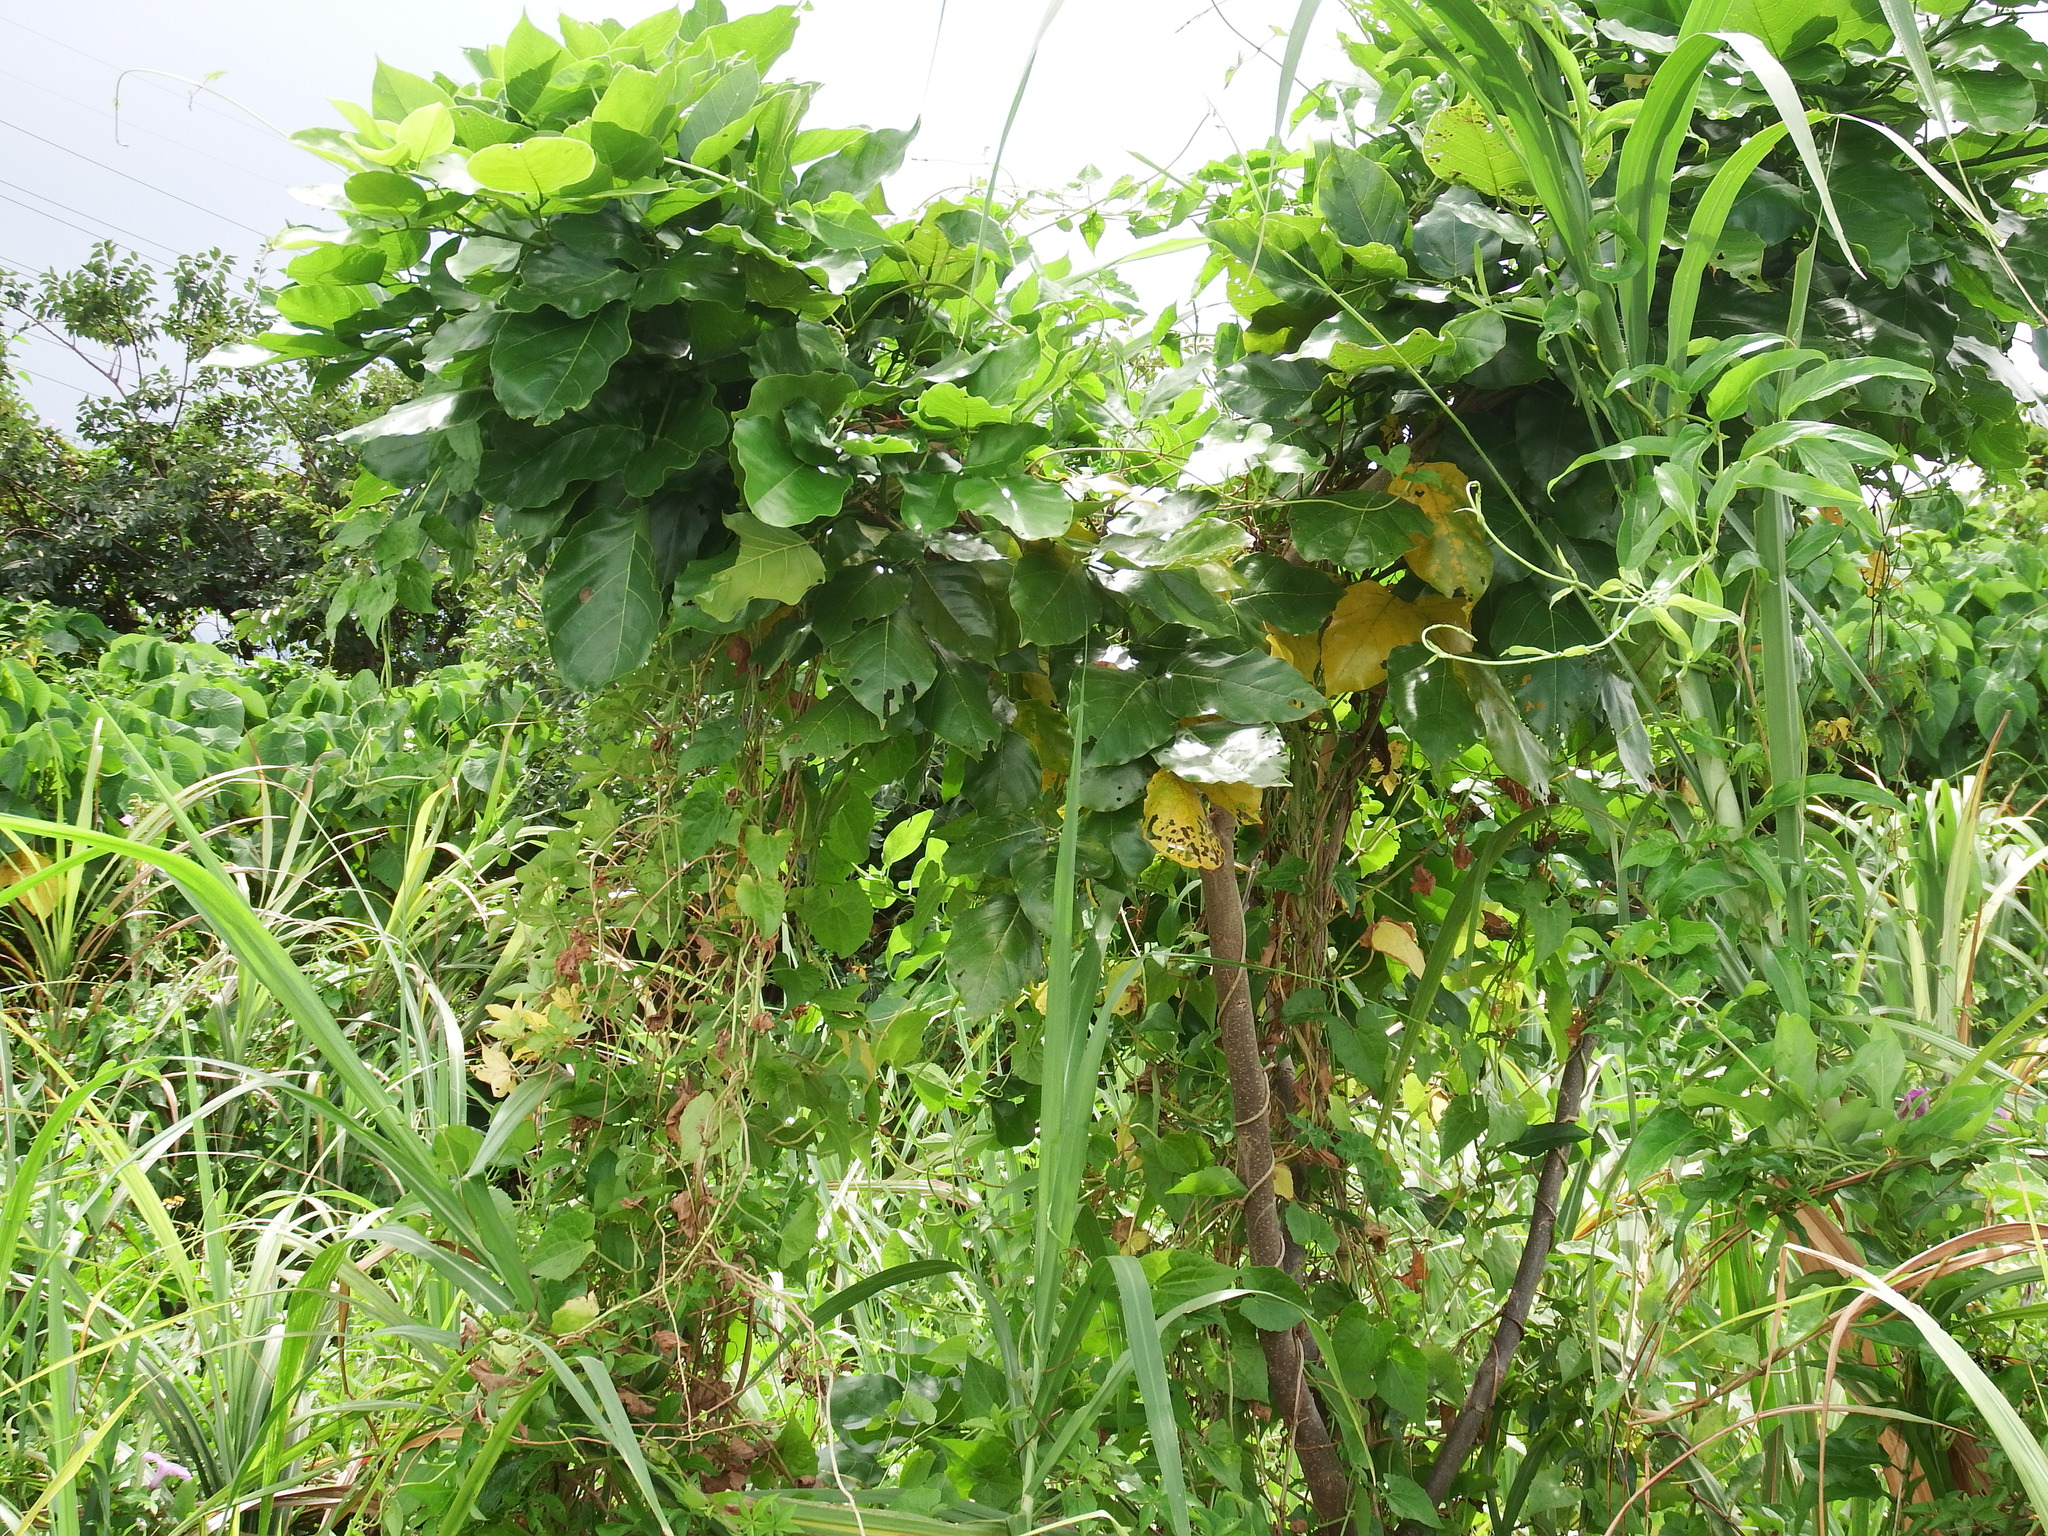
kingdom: Plantae
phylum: Tracheophyta
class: Magnoliopsida
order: Fabales
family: Fabaceae
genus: Pongamia
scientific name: Pongamia pinnata
